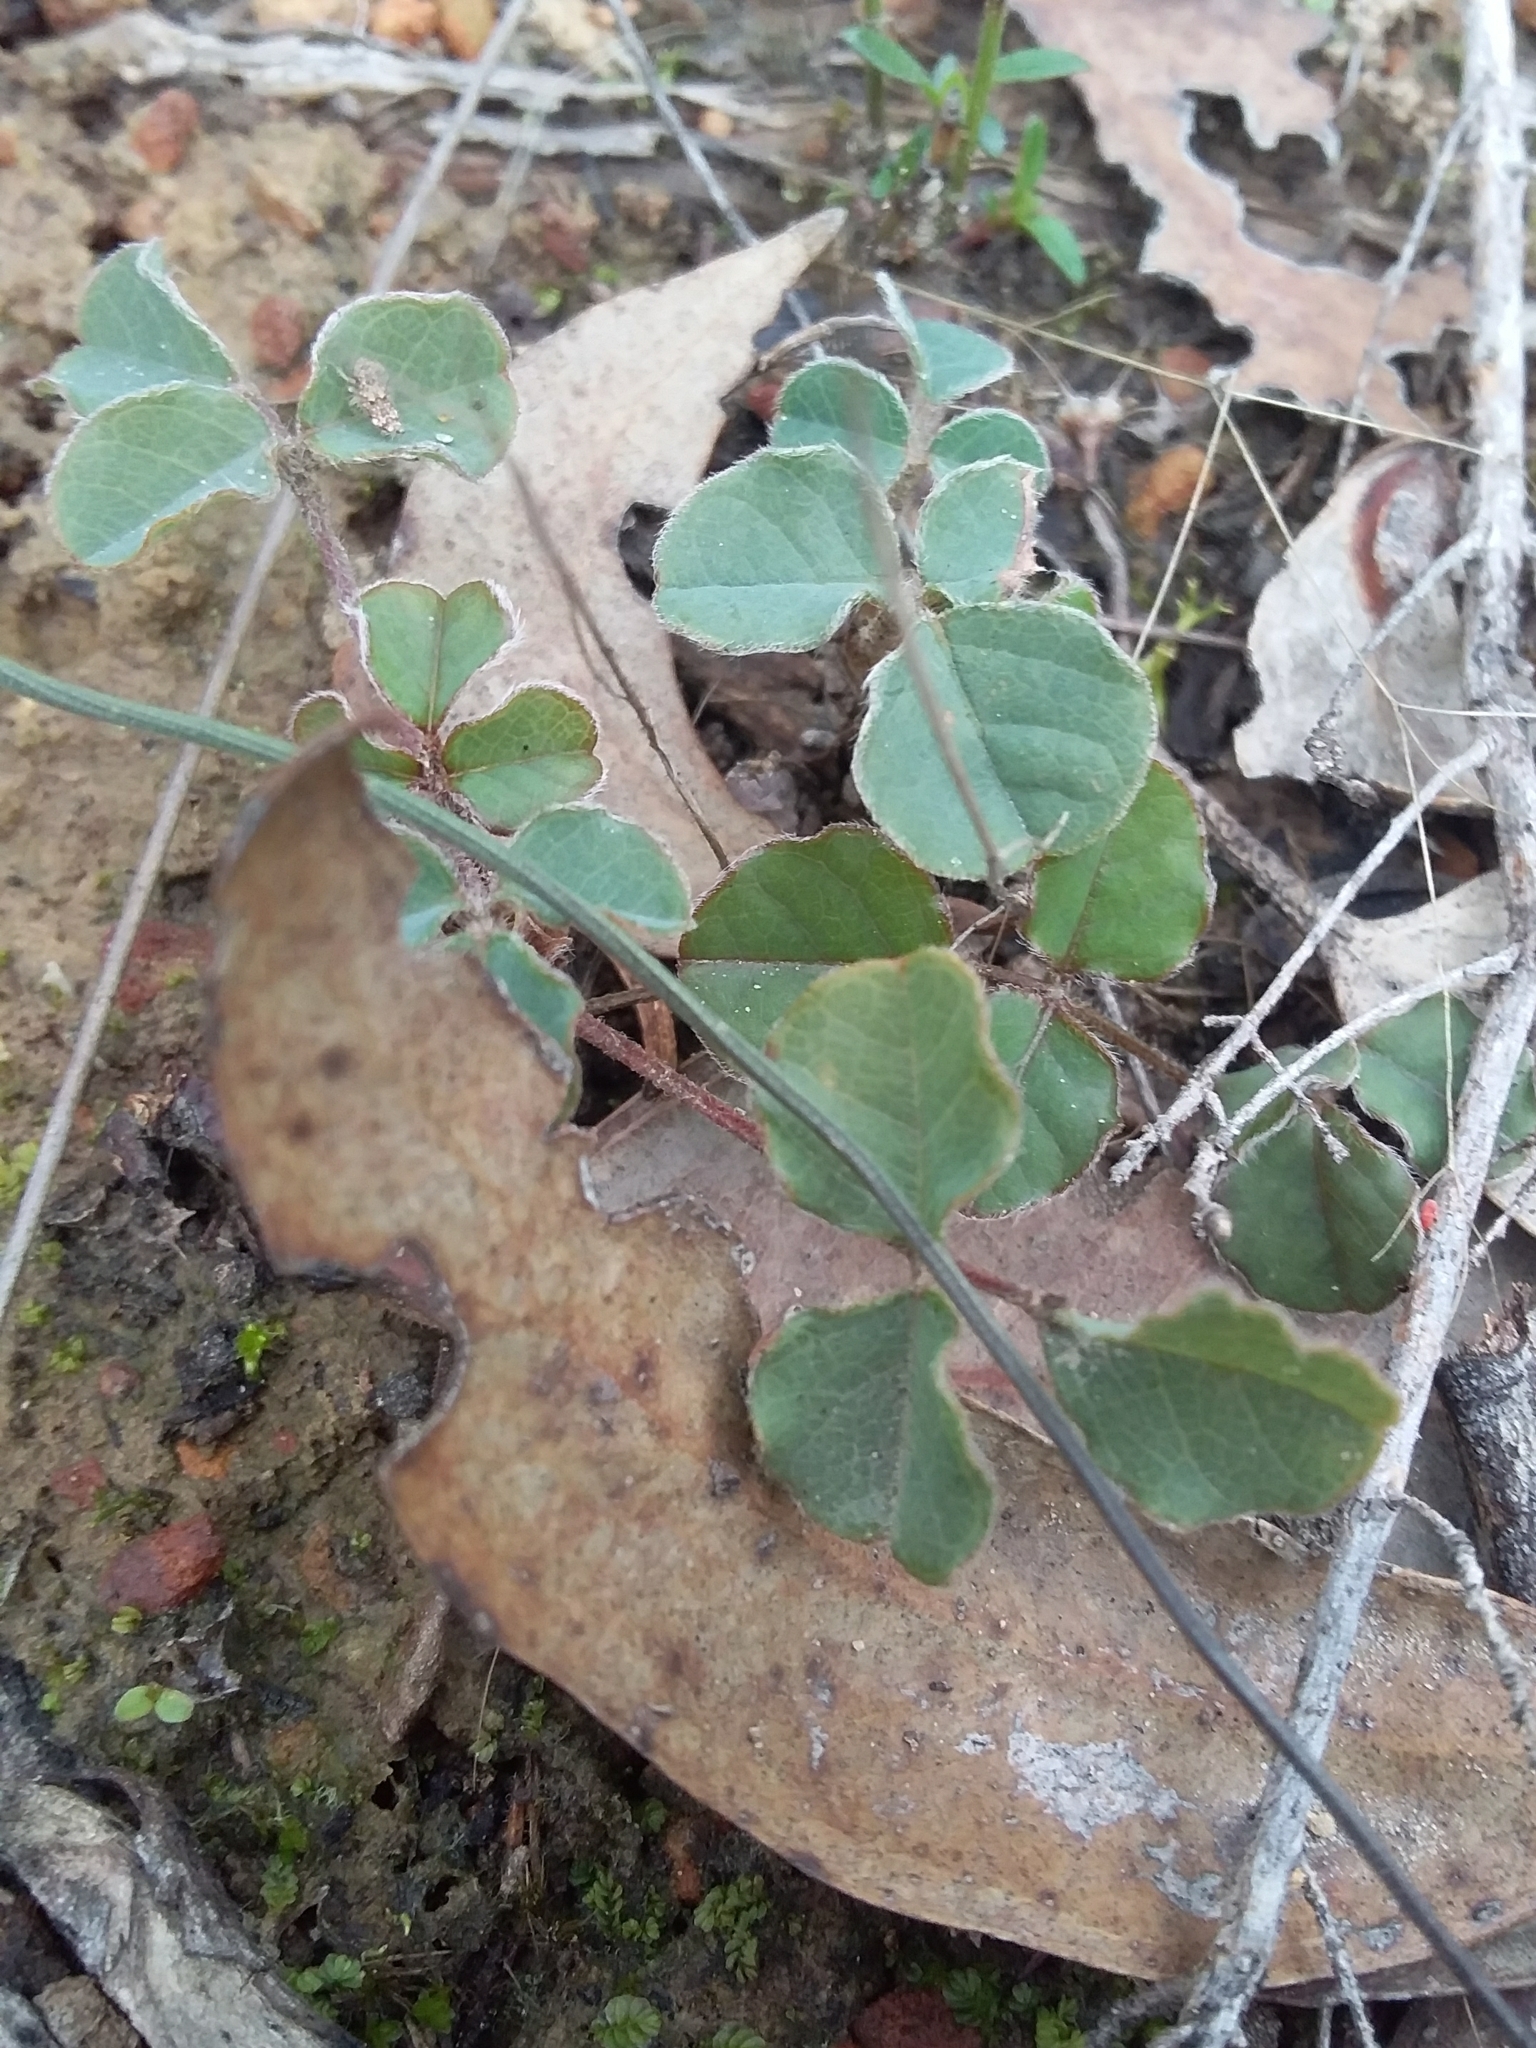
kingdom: Plantae
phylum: Tracheophyta
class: Magnoliopsida
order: Fabales
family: Fabaceae
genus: Kennedia
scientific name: Kennedia prostrata
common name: Running-postman
